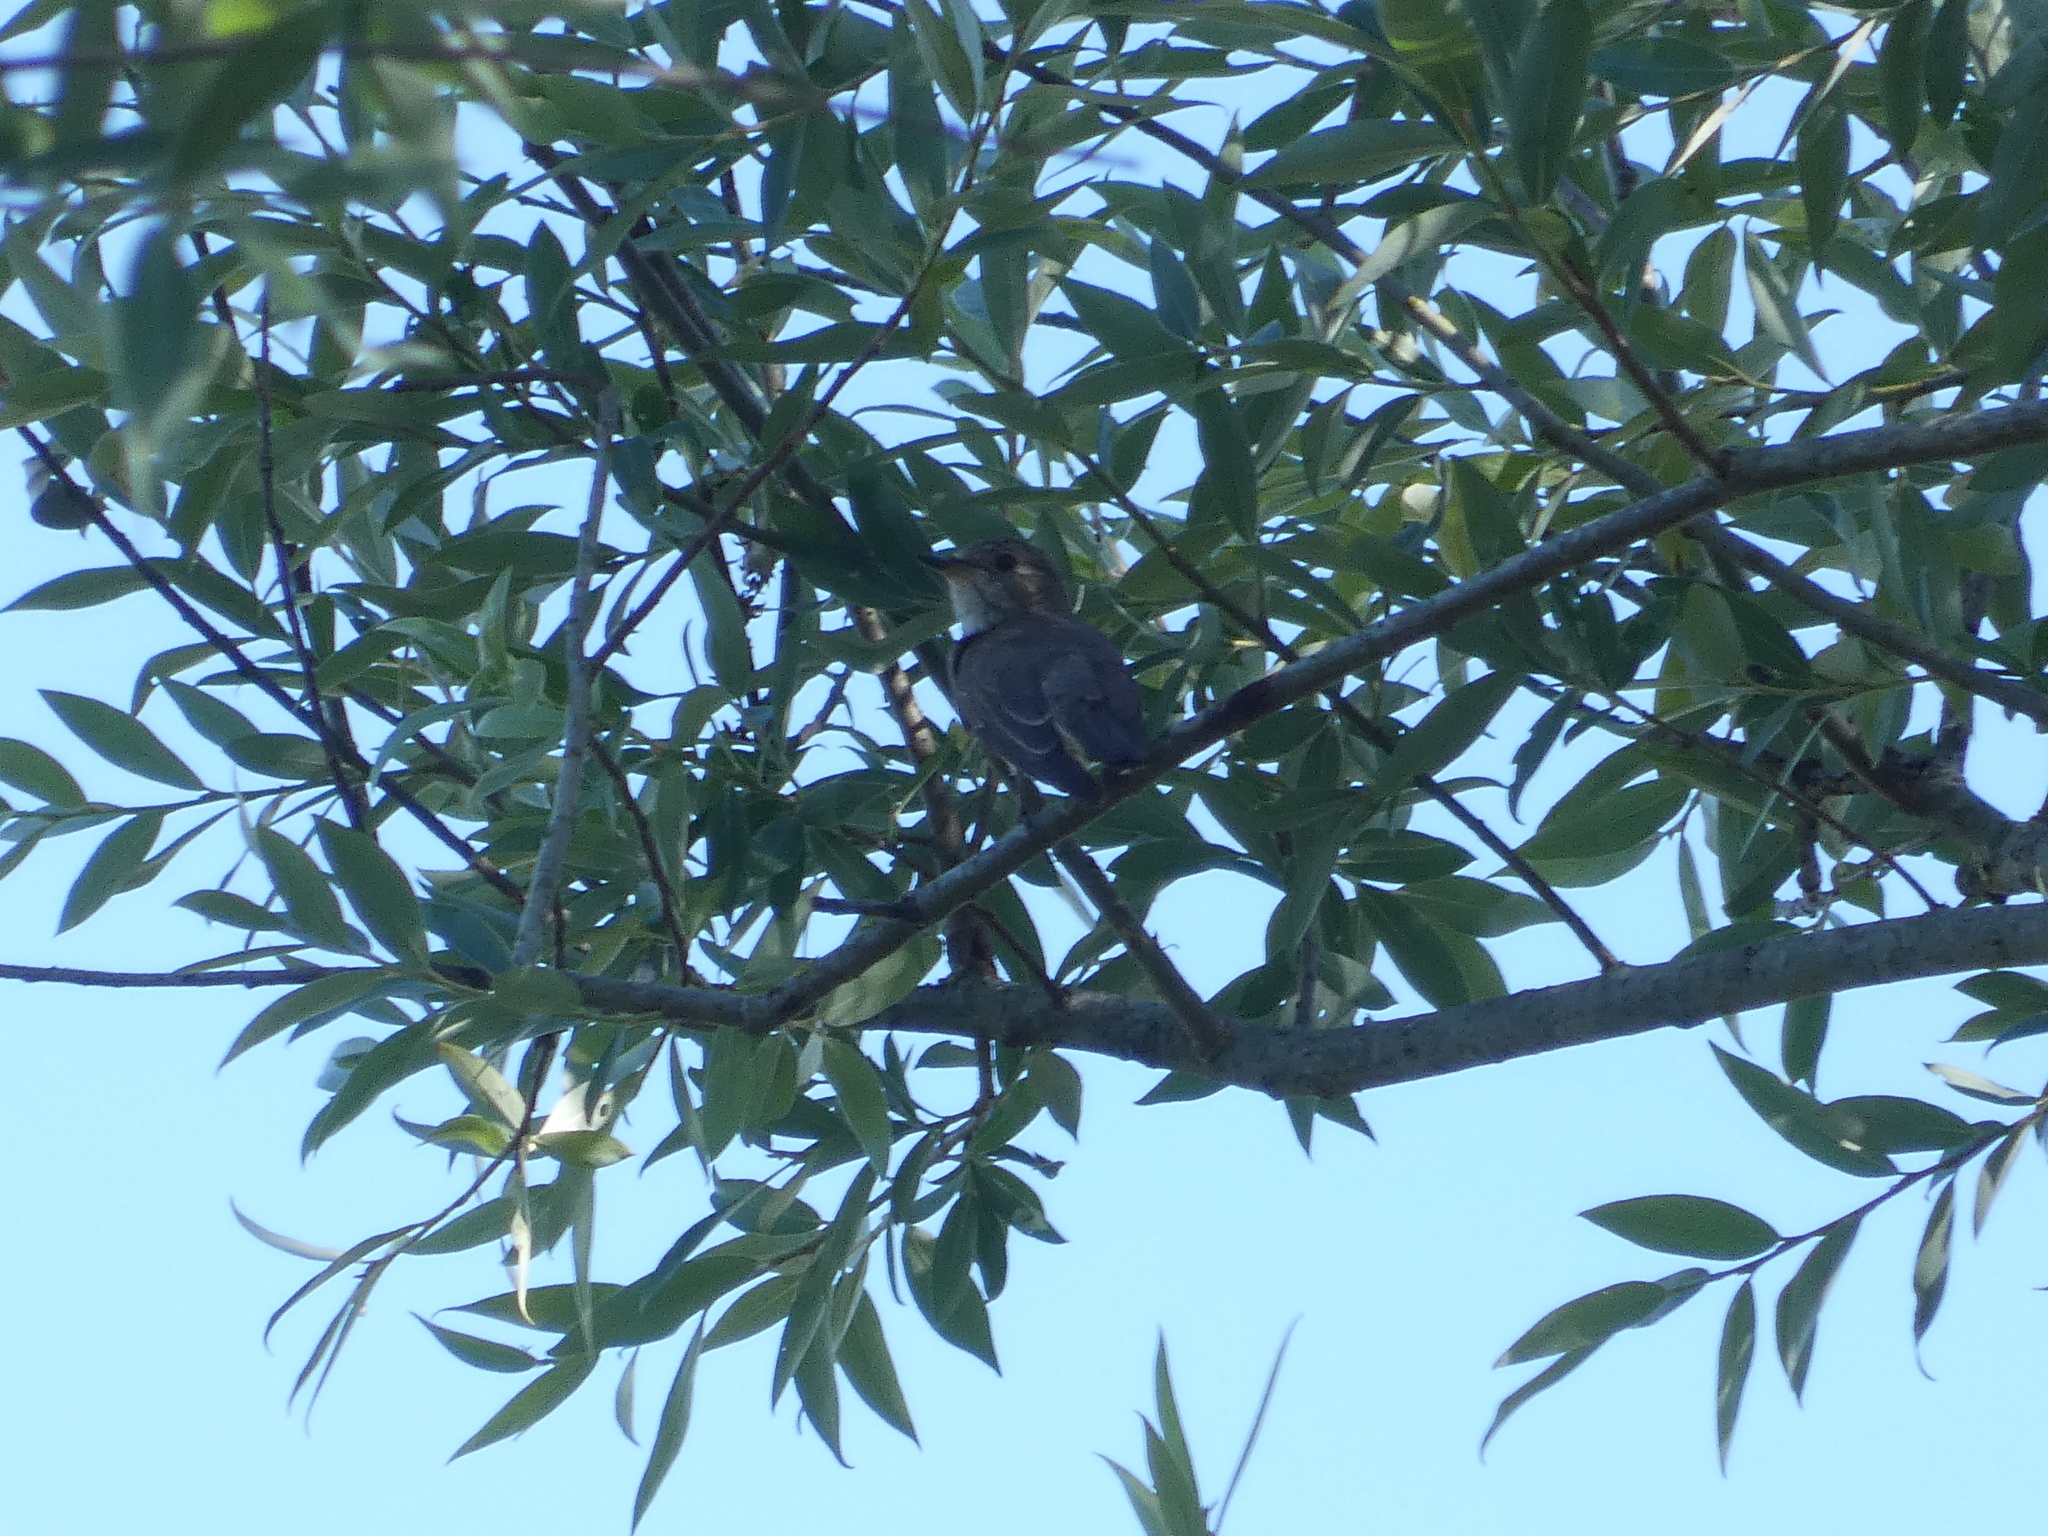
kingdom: Animalia
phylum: Chordata
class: Aves
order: Passeriformes
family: Muscicapidae
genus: Muscicapa
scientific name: Muscicapa striata
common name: Spotted flycatcher
